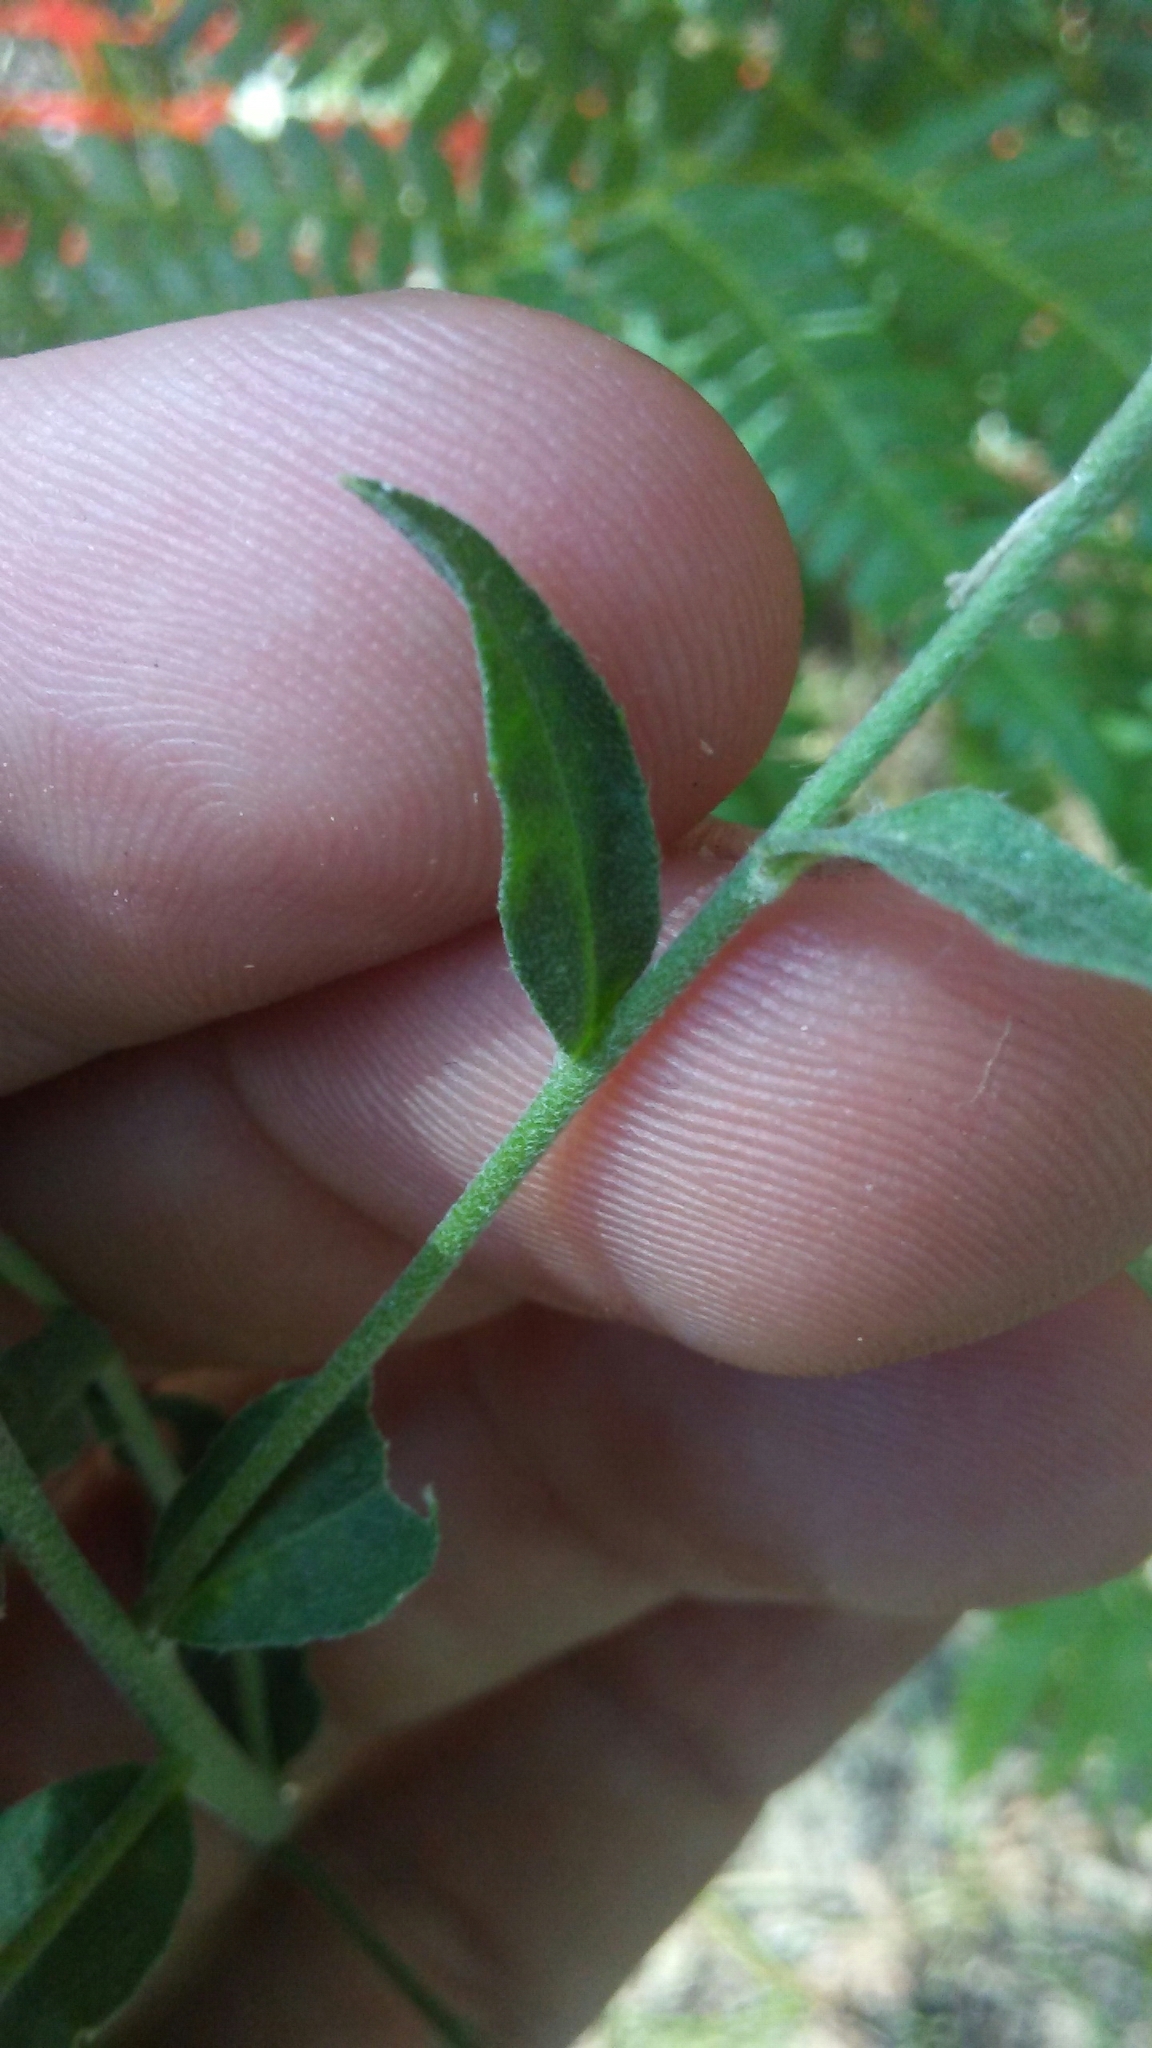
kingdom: Plantae
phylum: Tracheophyta
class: Magnoliopsida
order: Brassicales
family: Brassicaceae
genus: Berteroa
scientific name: Berteroa incana
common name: Hoary alison
